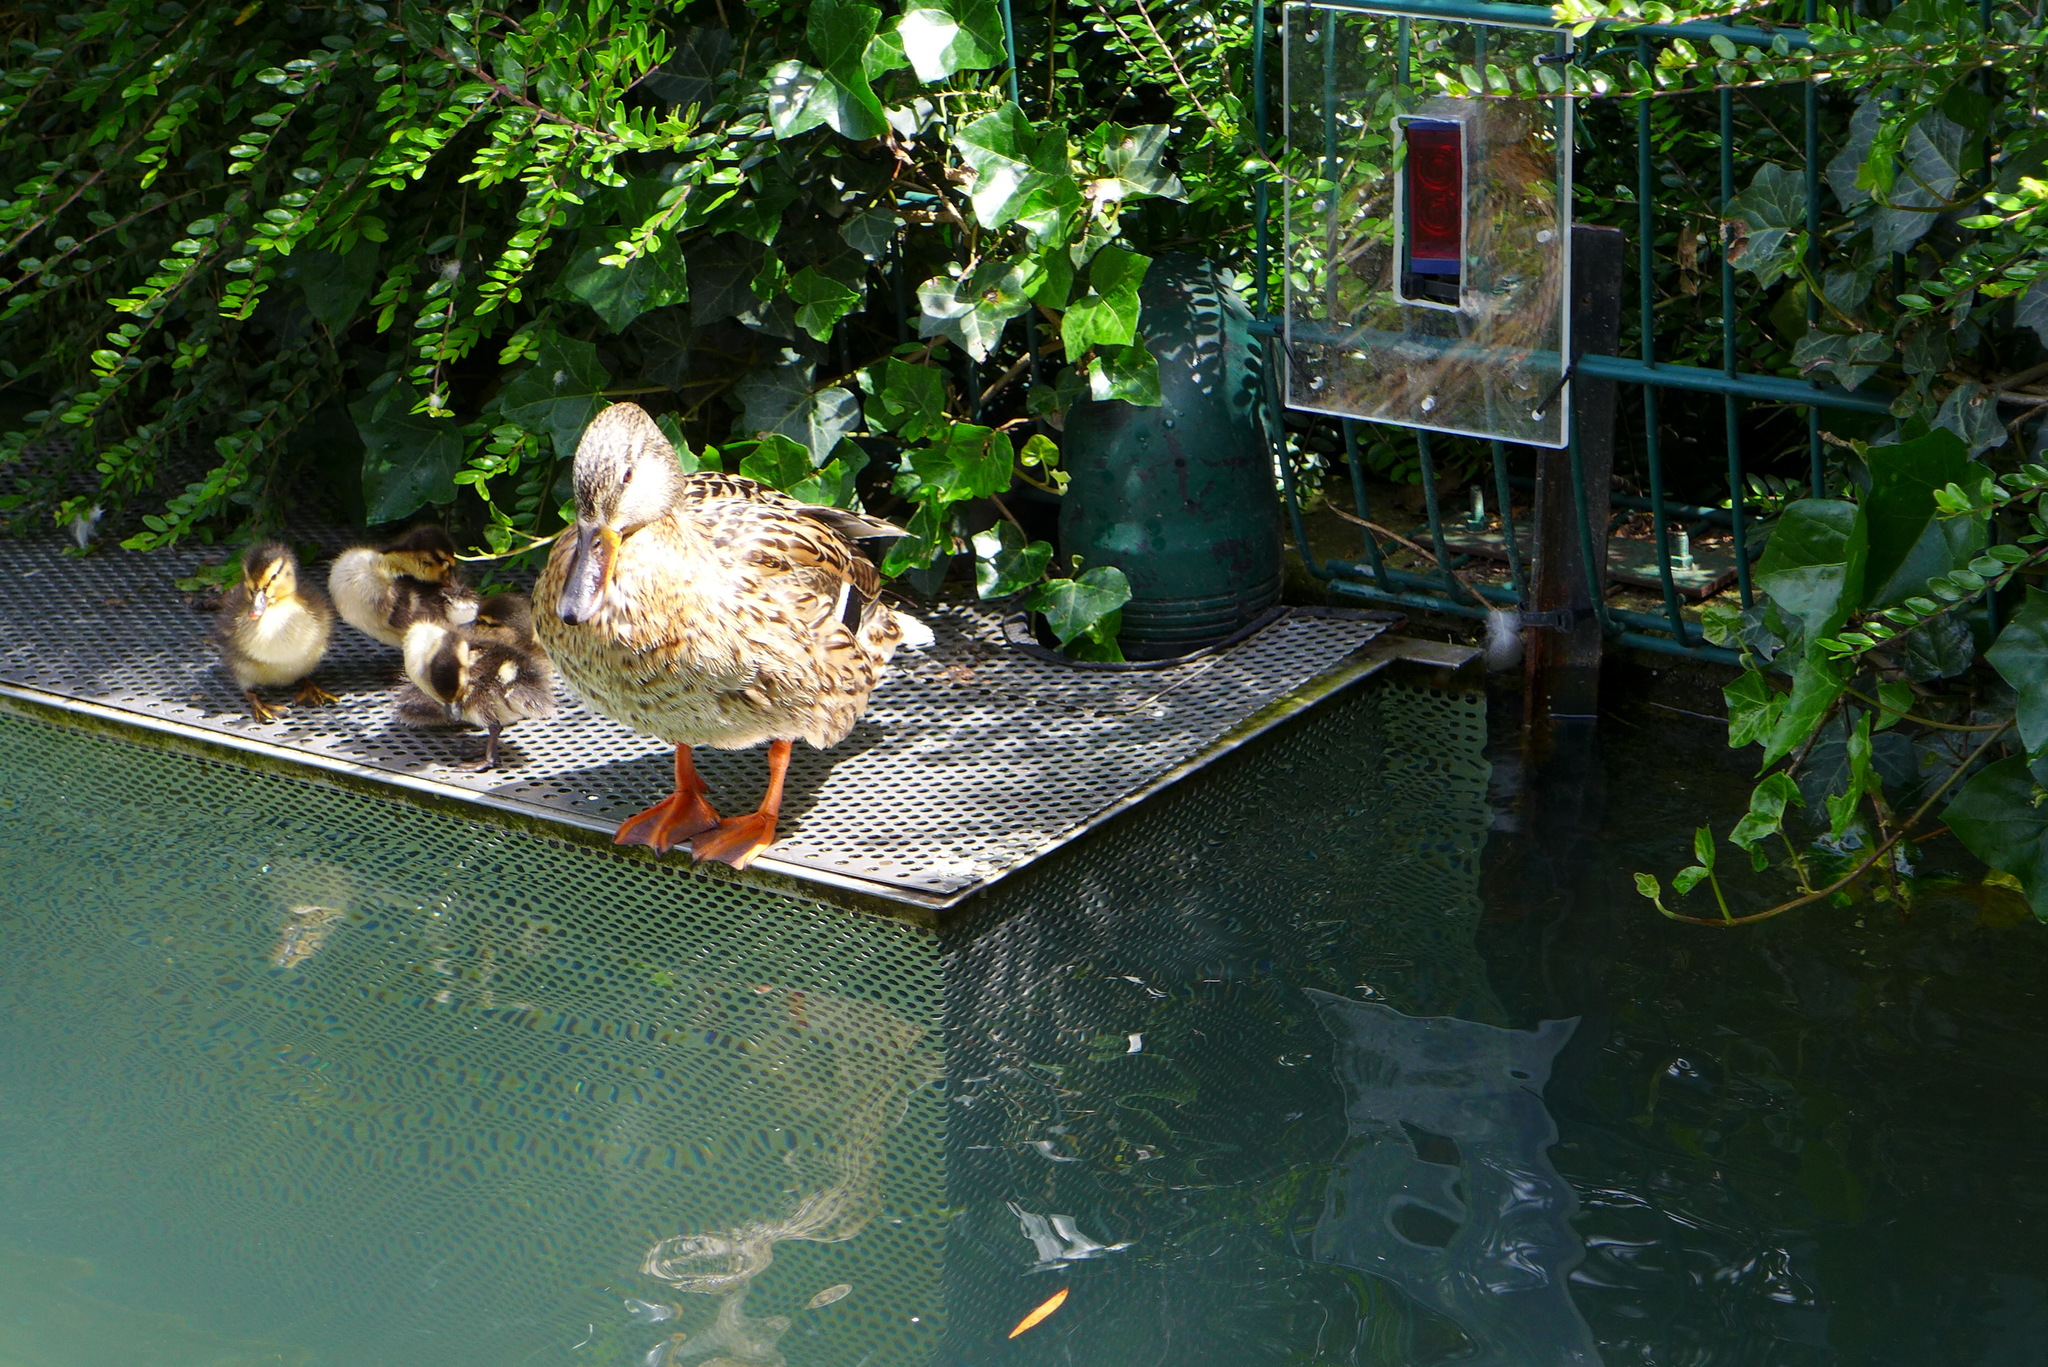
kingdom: Animalia
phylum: Chordata
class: Aves
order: Anseriformes
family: Anatidae
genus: Anas
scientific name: Anas platyrhynchos
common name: Mallard
